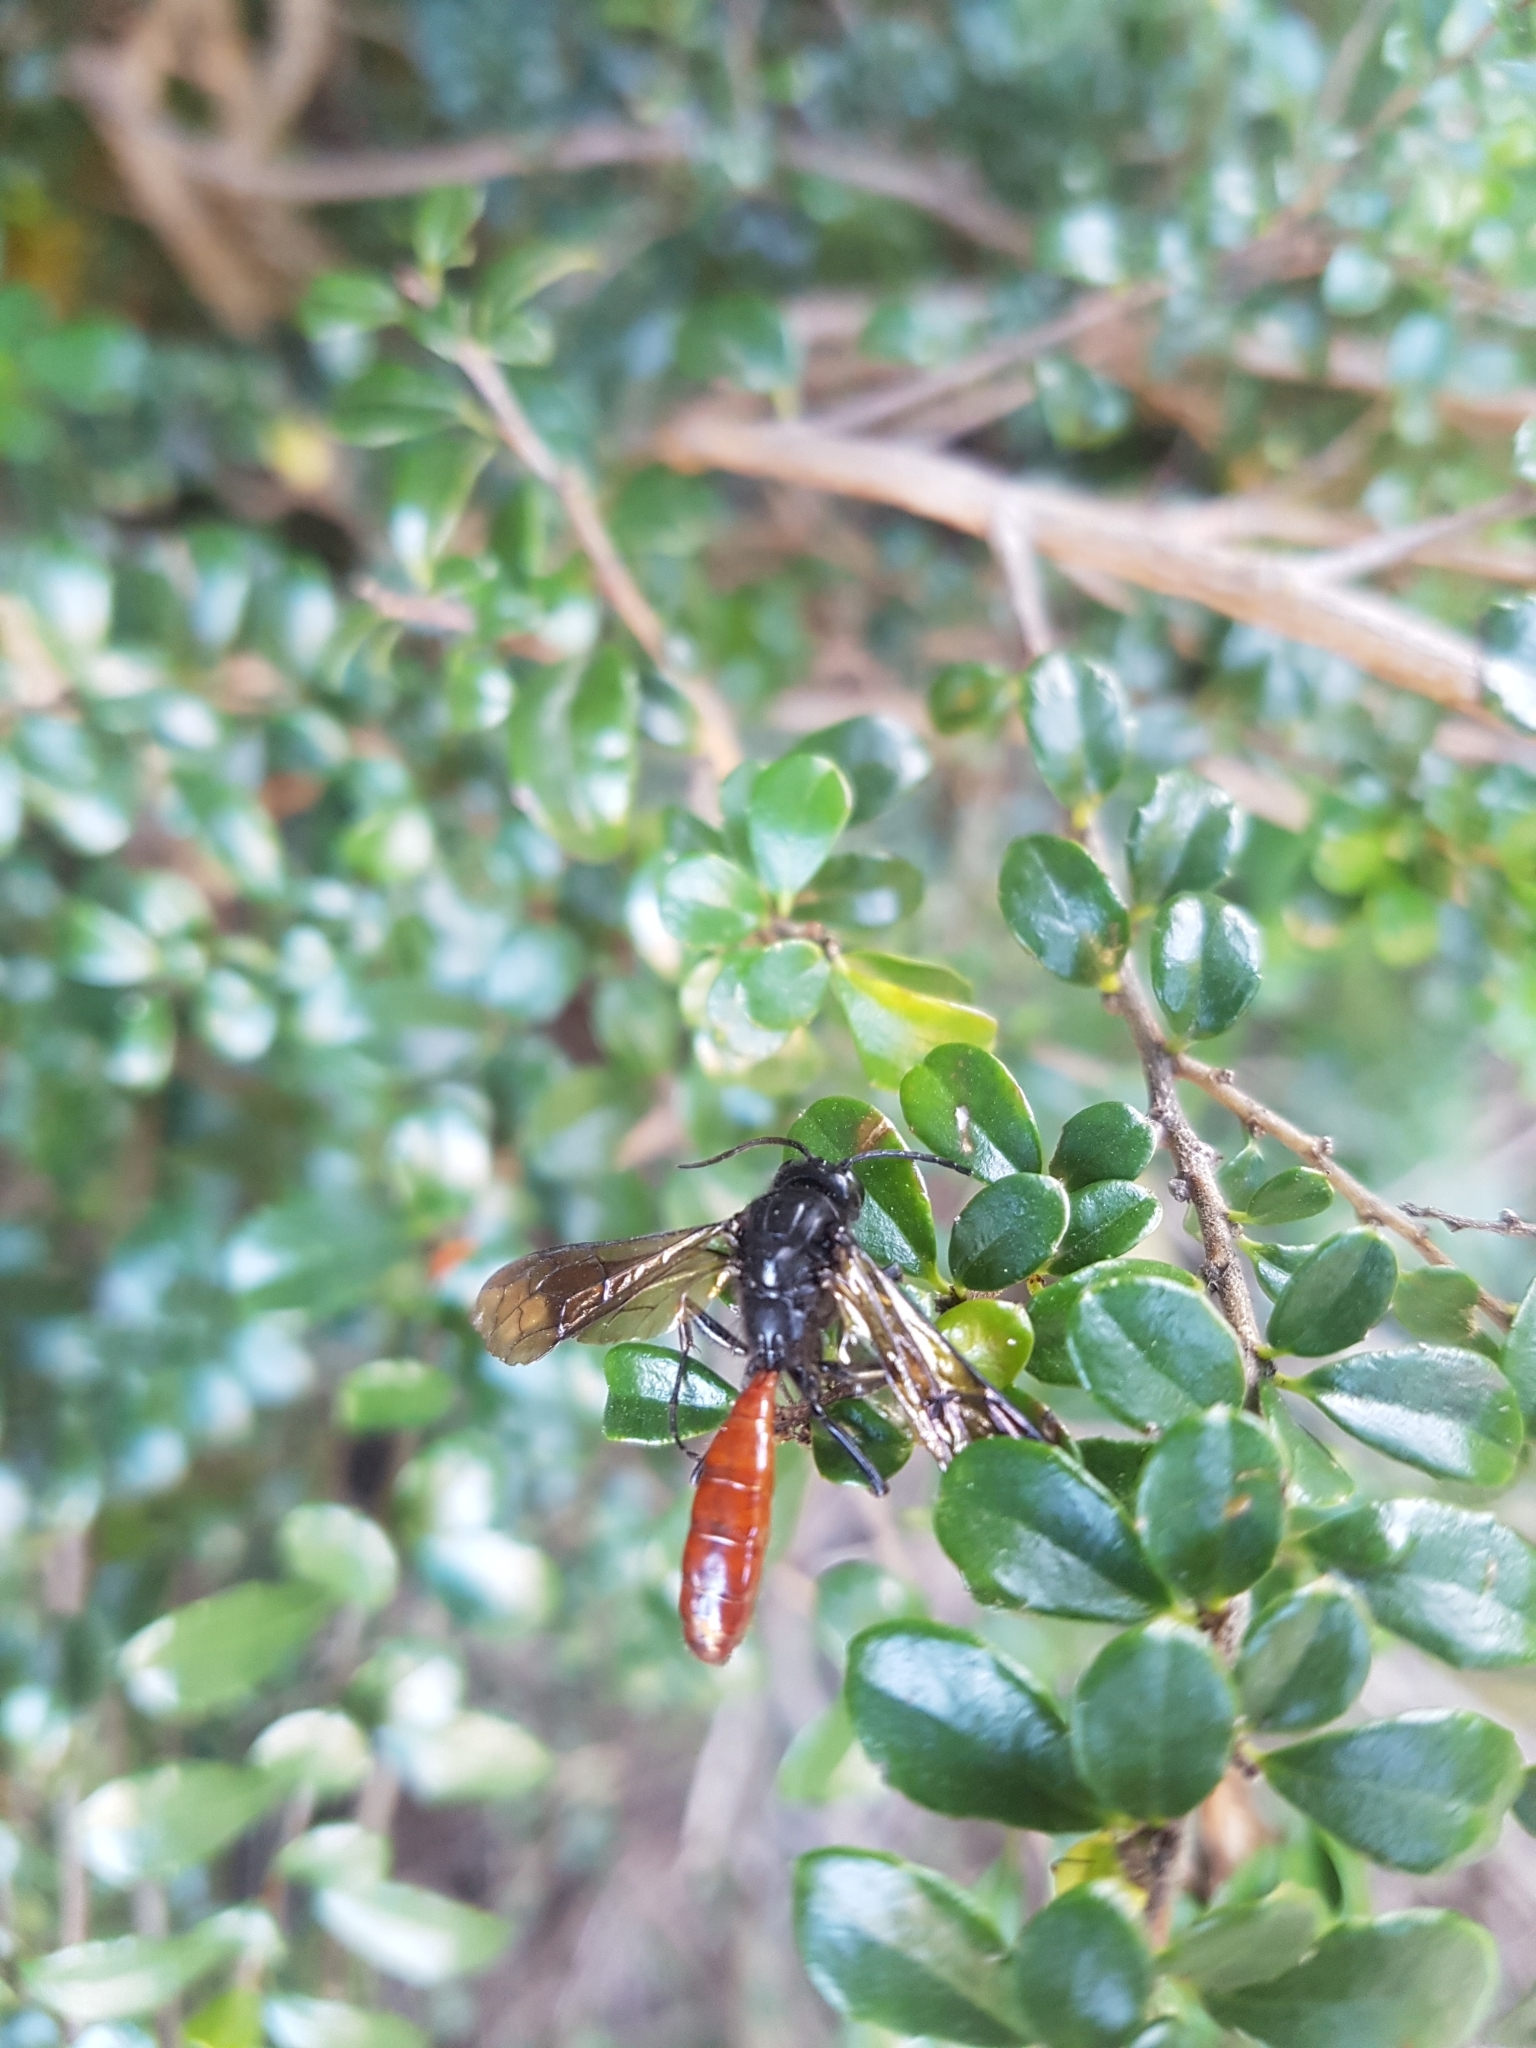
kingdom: Animalia
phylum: Arthropoda
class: Insecta
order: Hymenoptera
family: Tiphiidae
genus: Elaphroptera
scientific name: Elaphroptera
